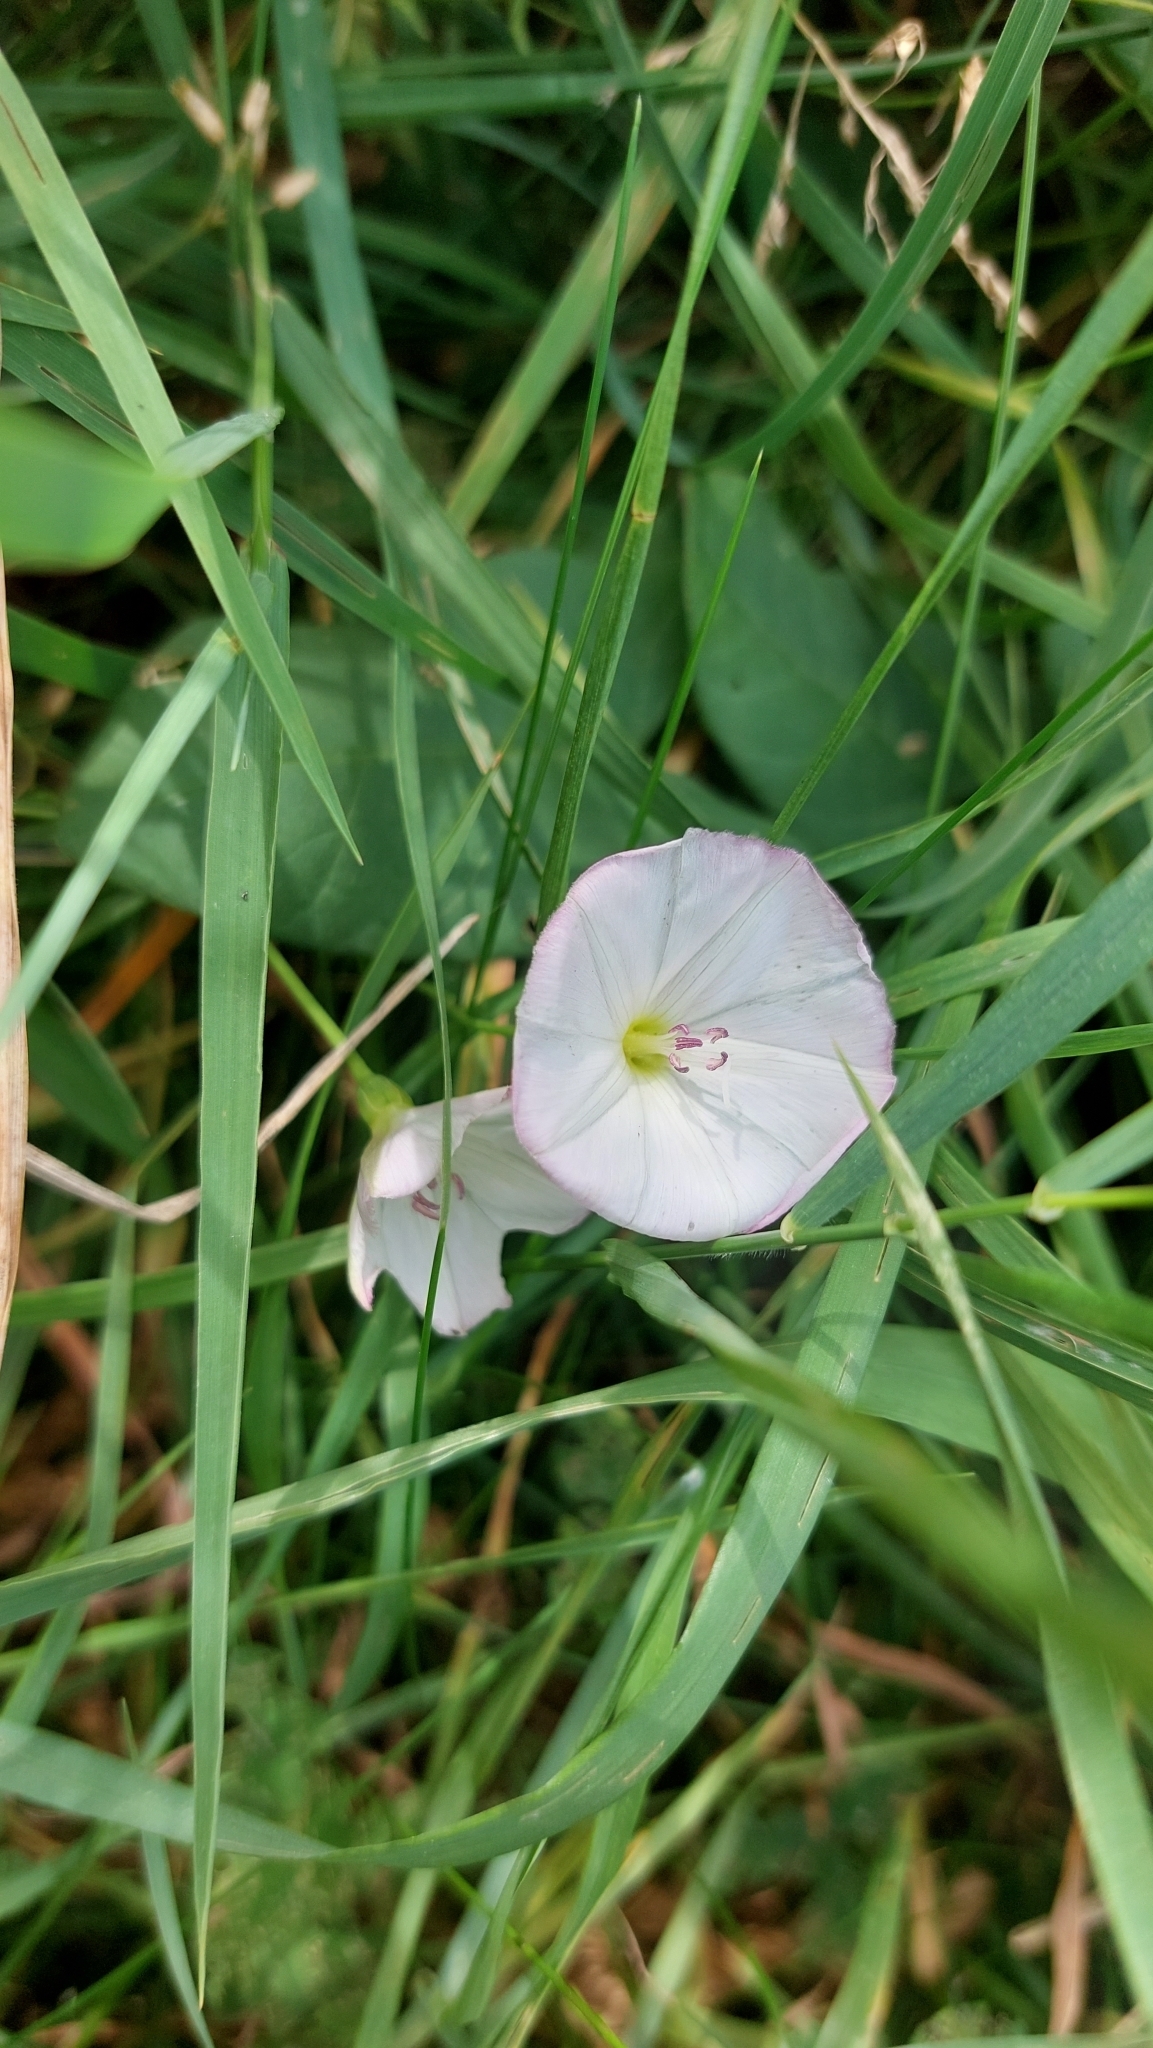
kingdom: Plantae
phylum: Tracheophyta
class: Magnoliopsida
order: Solanales
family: Convolvulaceae
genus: Convolvulus
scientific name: Convolvulus arvensis
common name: Field bindweed
